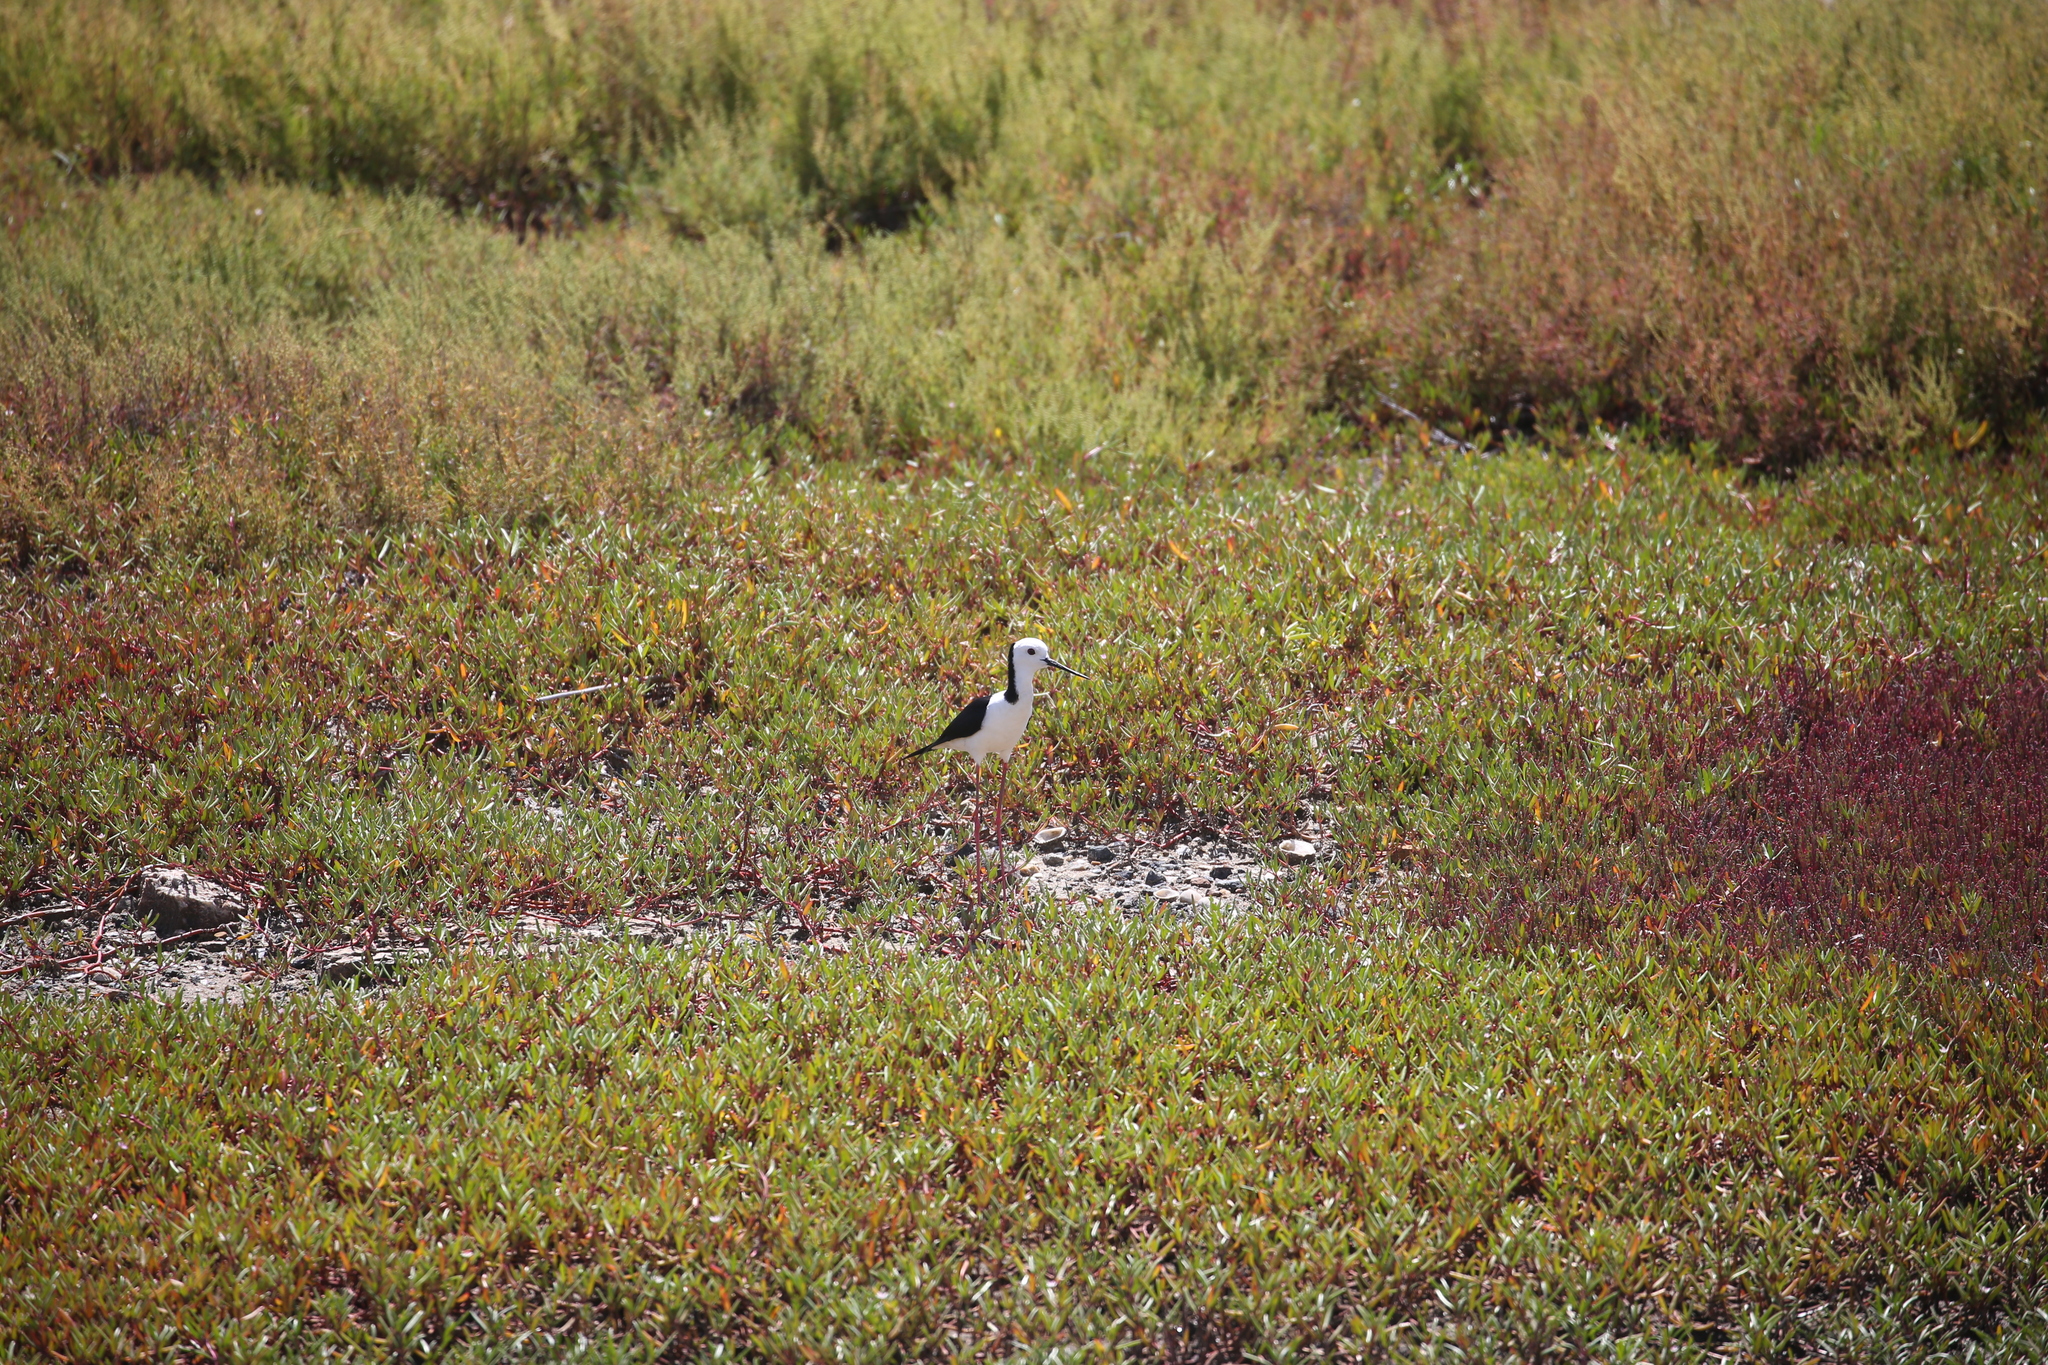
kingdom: Animalia
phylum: Chordata
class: Aves
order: Charadriiformes
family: Recurvirostridae
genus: Himantopus
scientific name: Himantopus leucocephalus
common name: White-headed stilt
